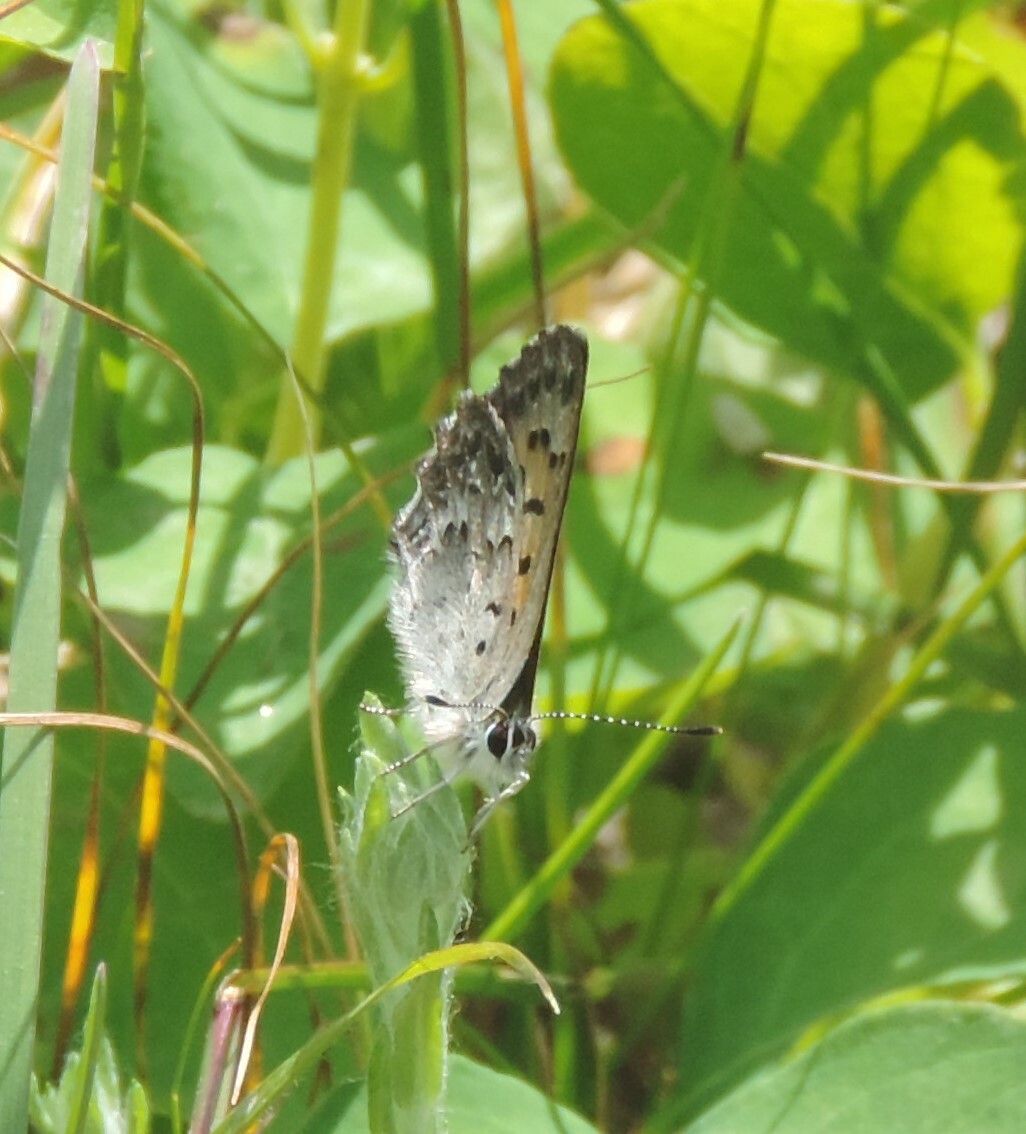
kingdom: Animalia
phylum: Arthropoda
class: Insecta
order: Lepidoptera
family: Lycaenidae
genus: Tharsalea
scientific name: Tharsalea mariposa
